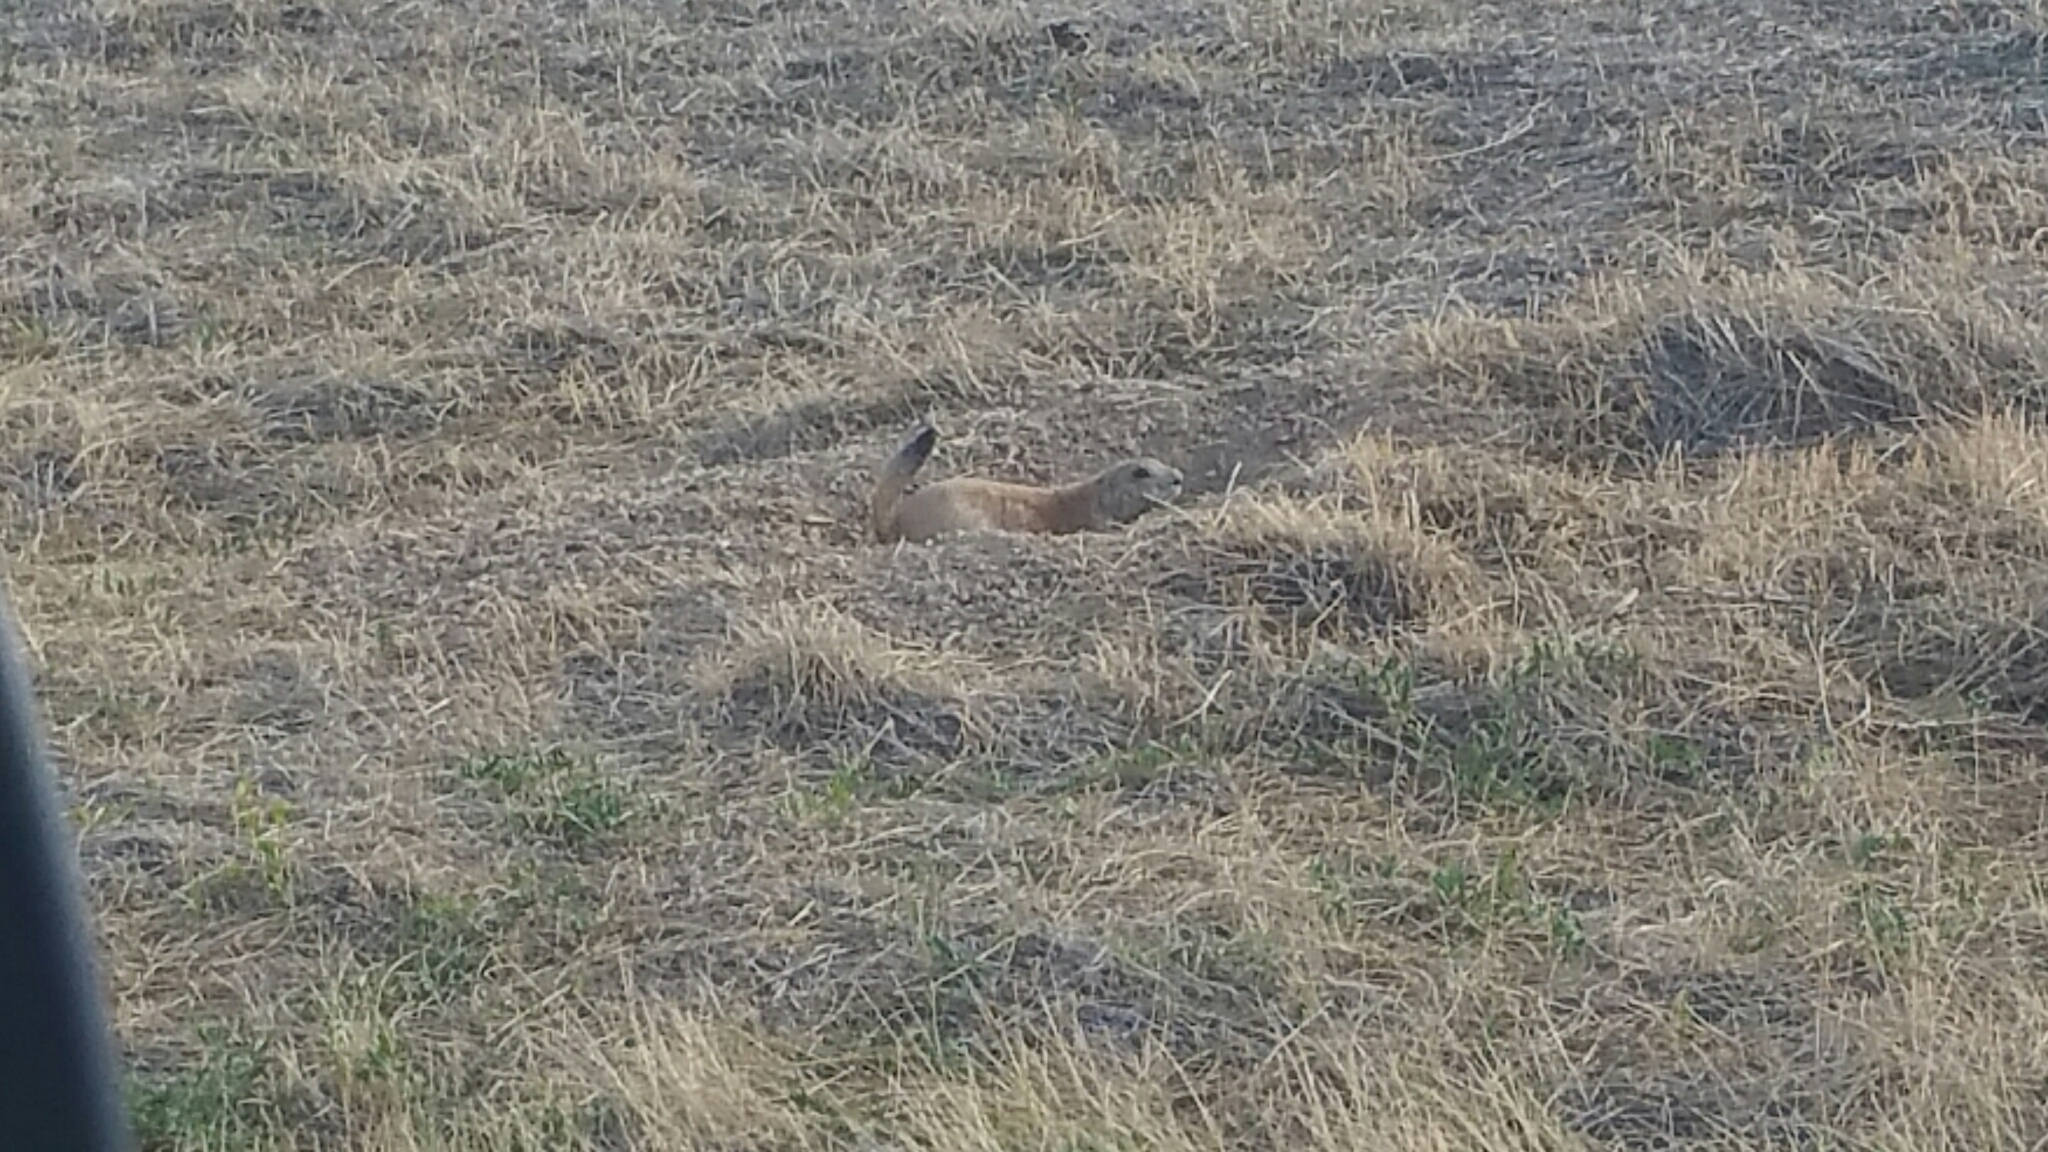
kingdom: Animalia
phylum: Chordata
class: Mammalia
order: Rodentia
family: Sciuridae
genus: Cynomys
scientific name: Cynomys ludovicianus
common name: Black-tailed prairie dog
